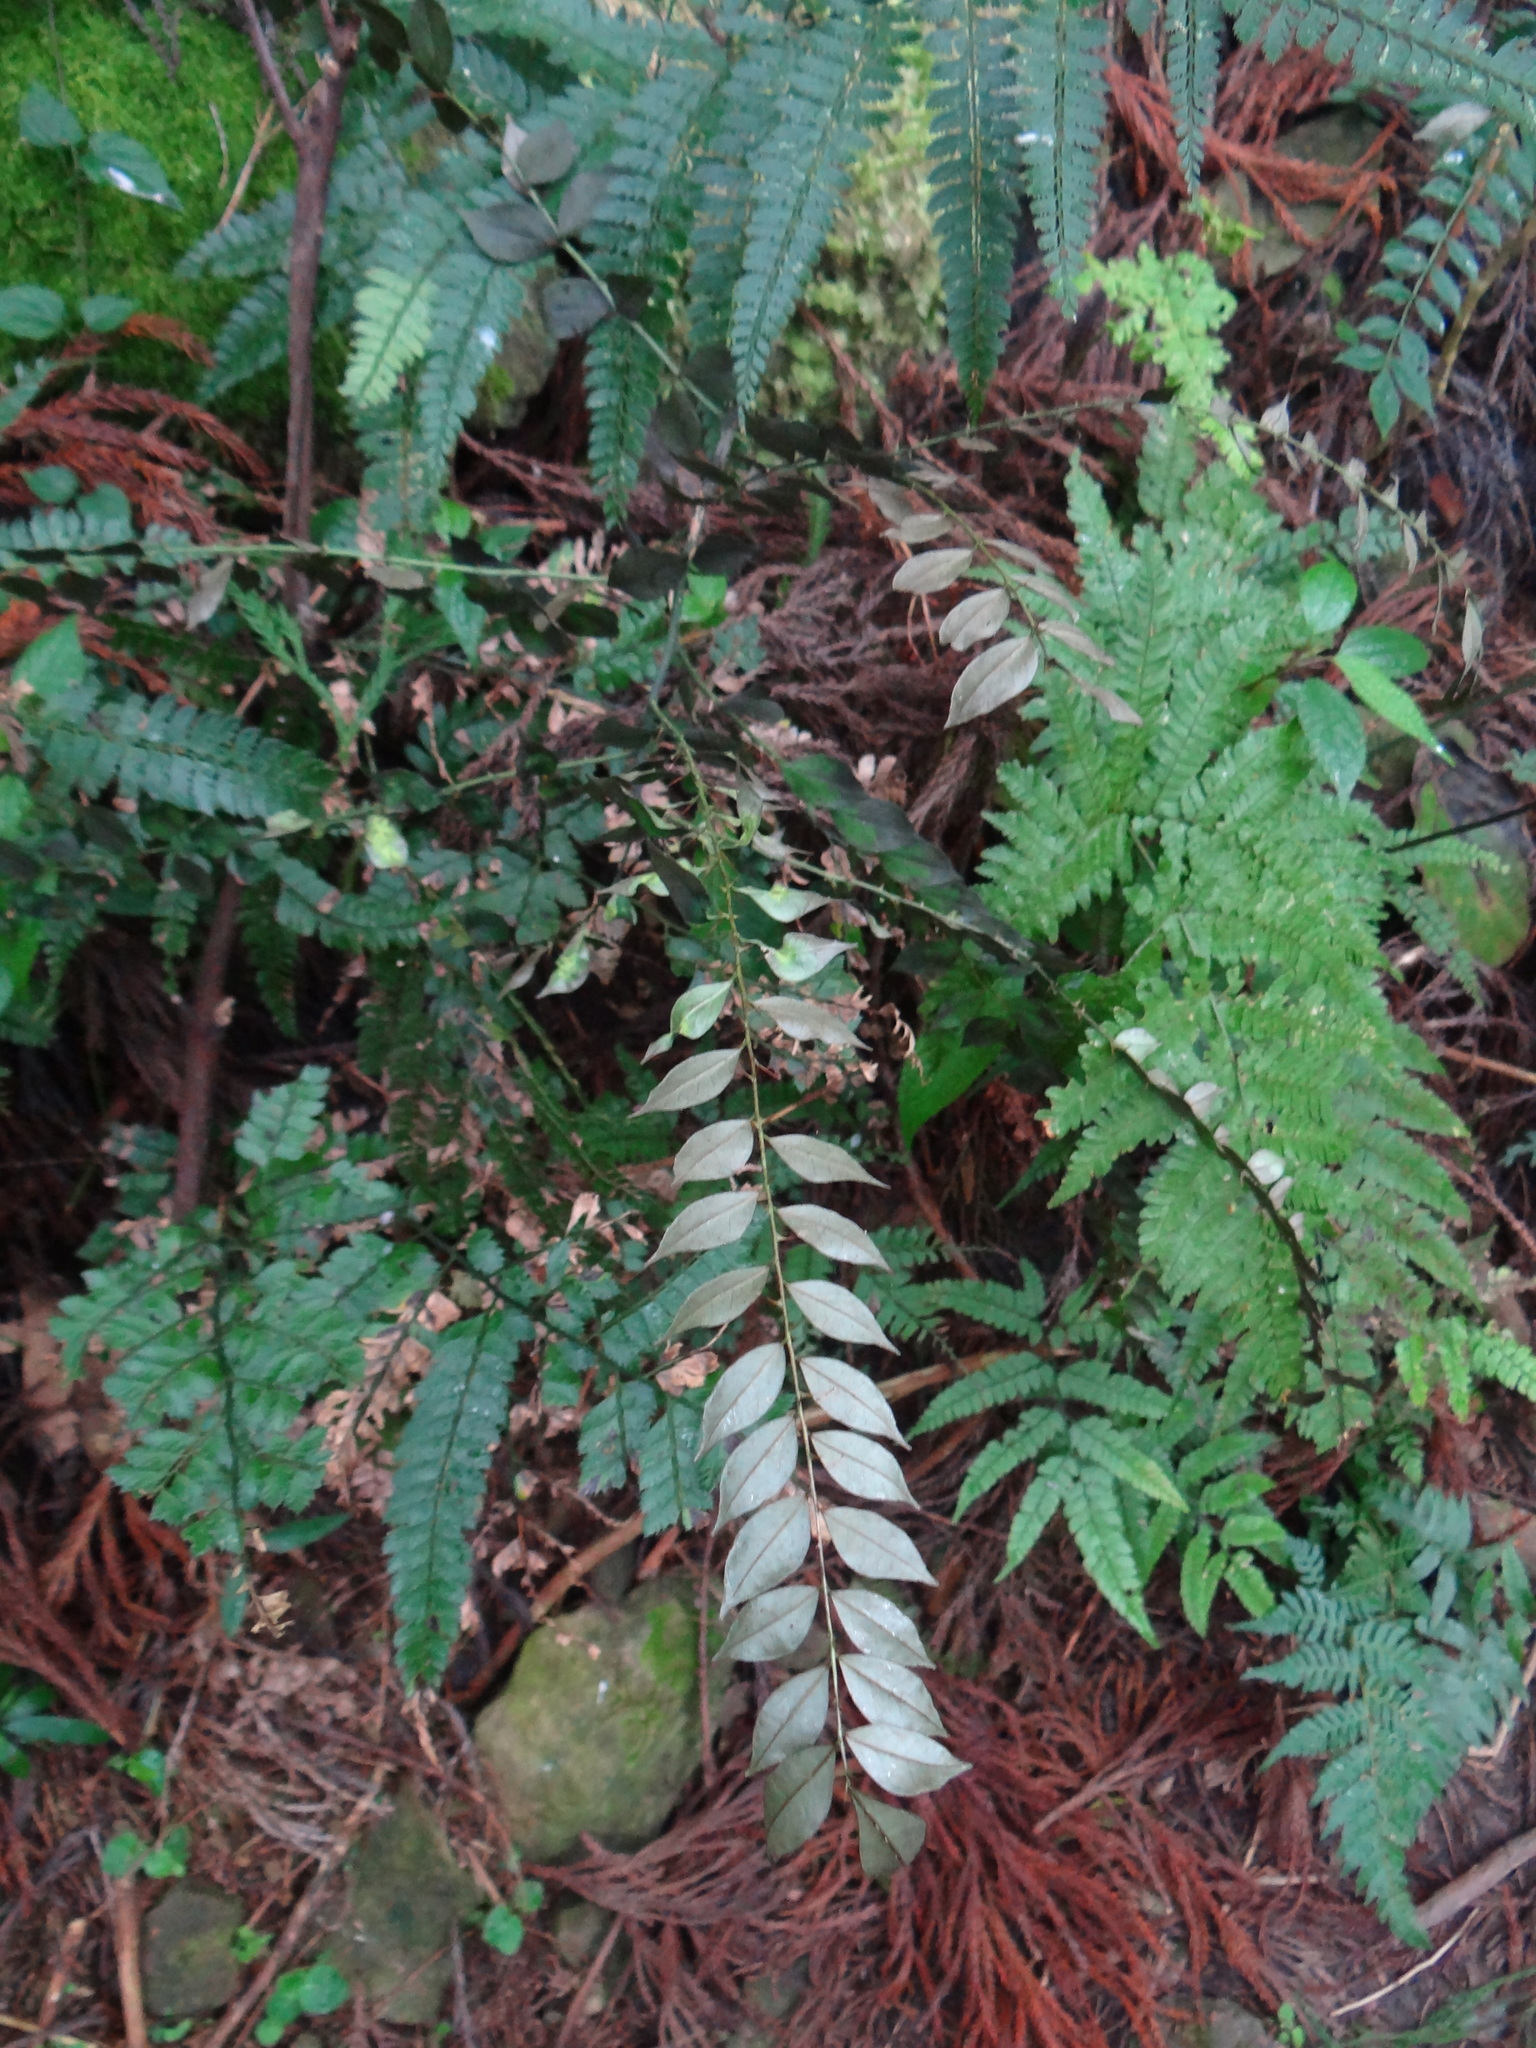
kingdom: Plantae
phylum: Tracheophyta
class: Magnoliopsida
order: Sapindales
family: Rutaceae
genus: Zanthoxylum
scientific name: Zanthoxylum scandens
